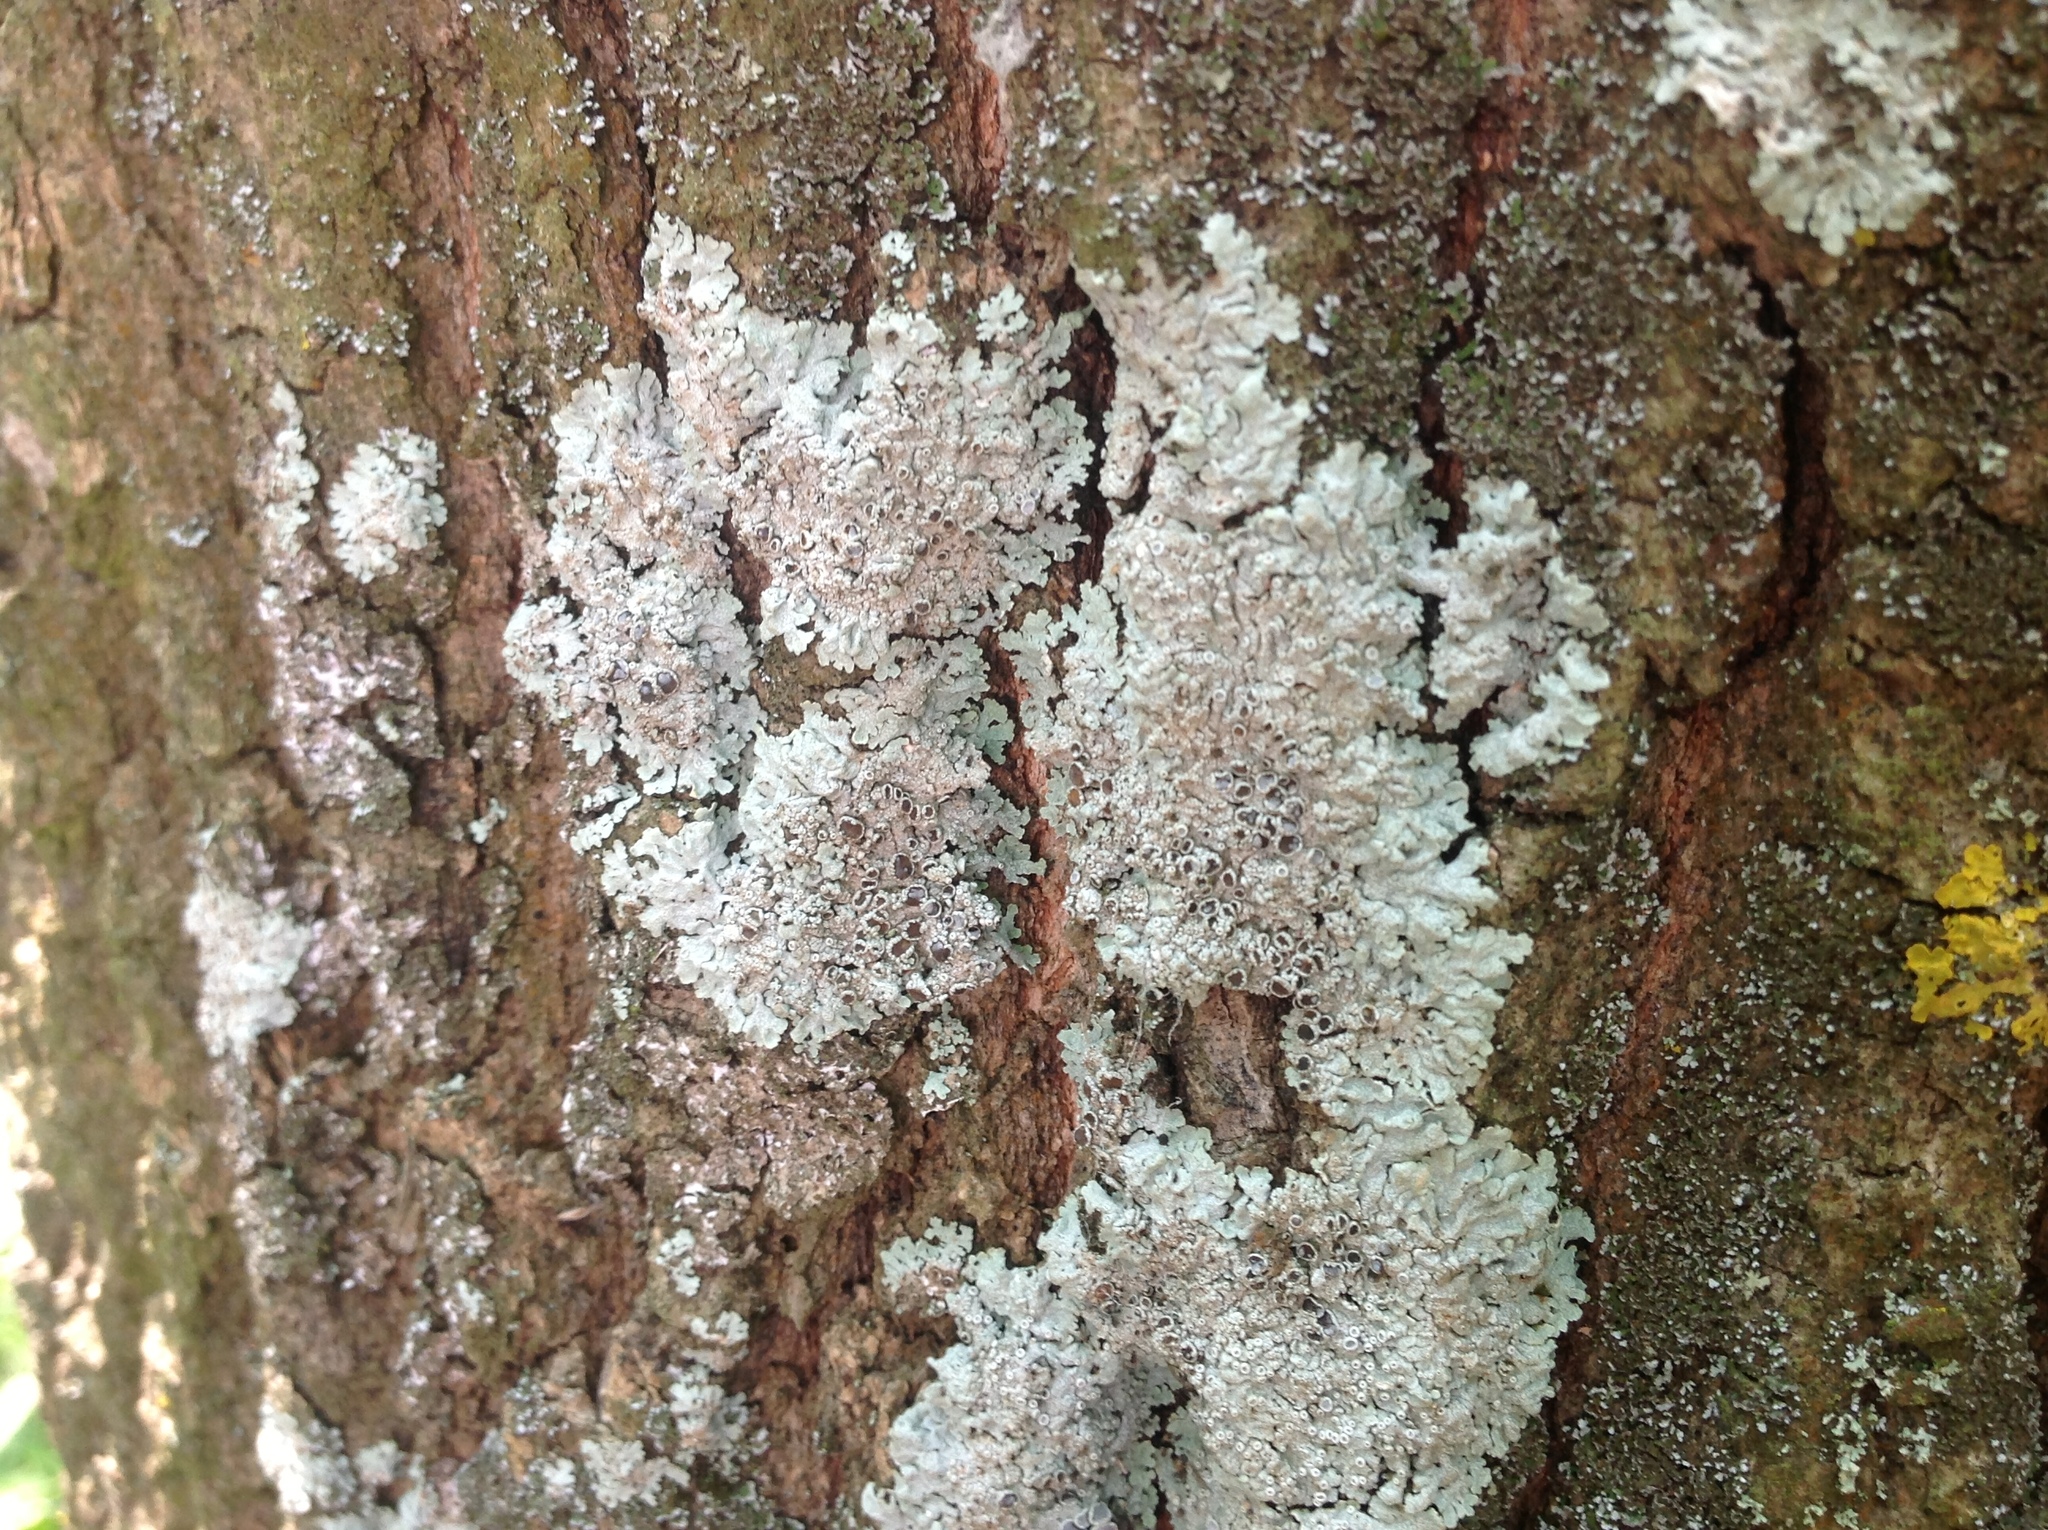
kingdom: Fungi
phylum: Ascomycota
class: Lecanoromycetes
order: Lecanorales
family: Parmeliaceae
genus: Parmelina
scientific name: Parmelina quercina
